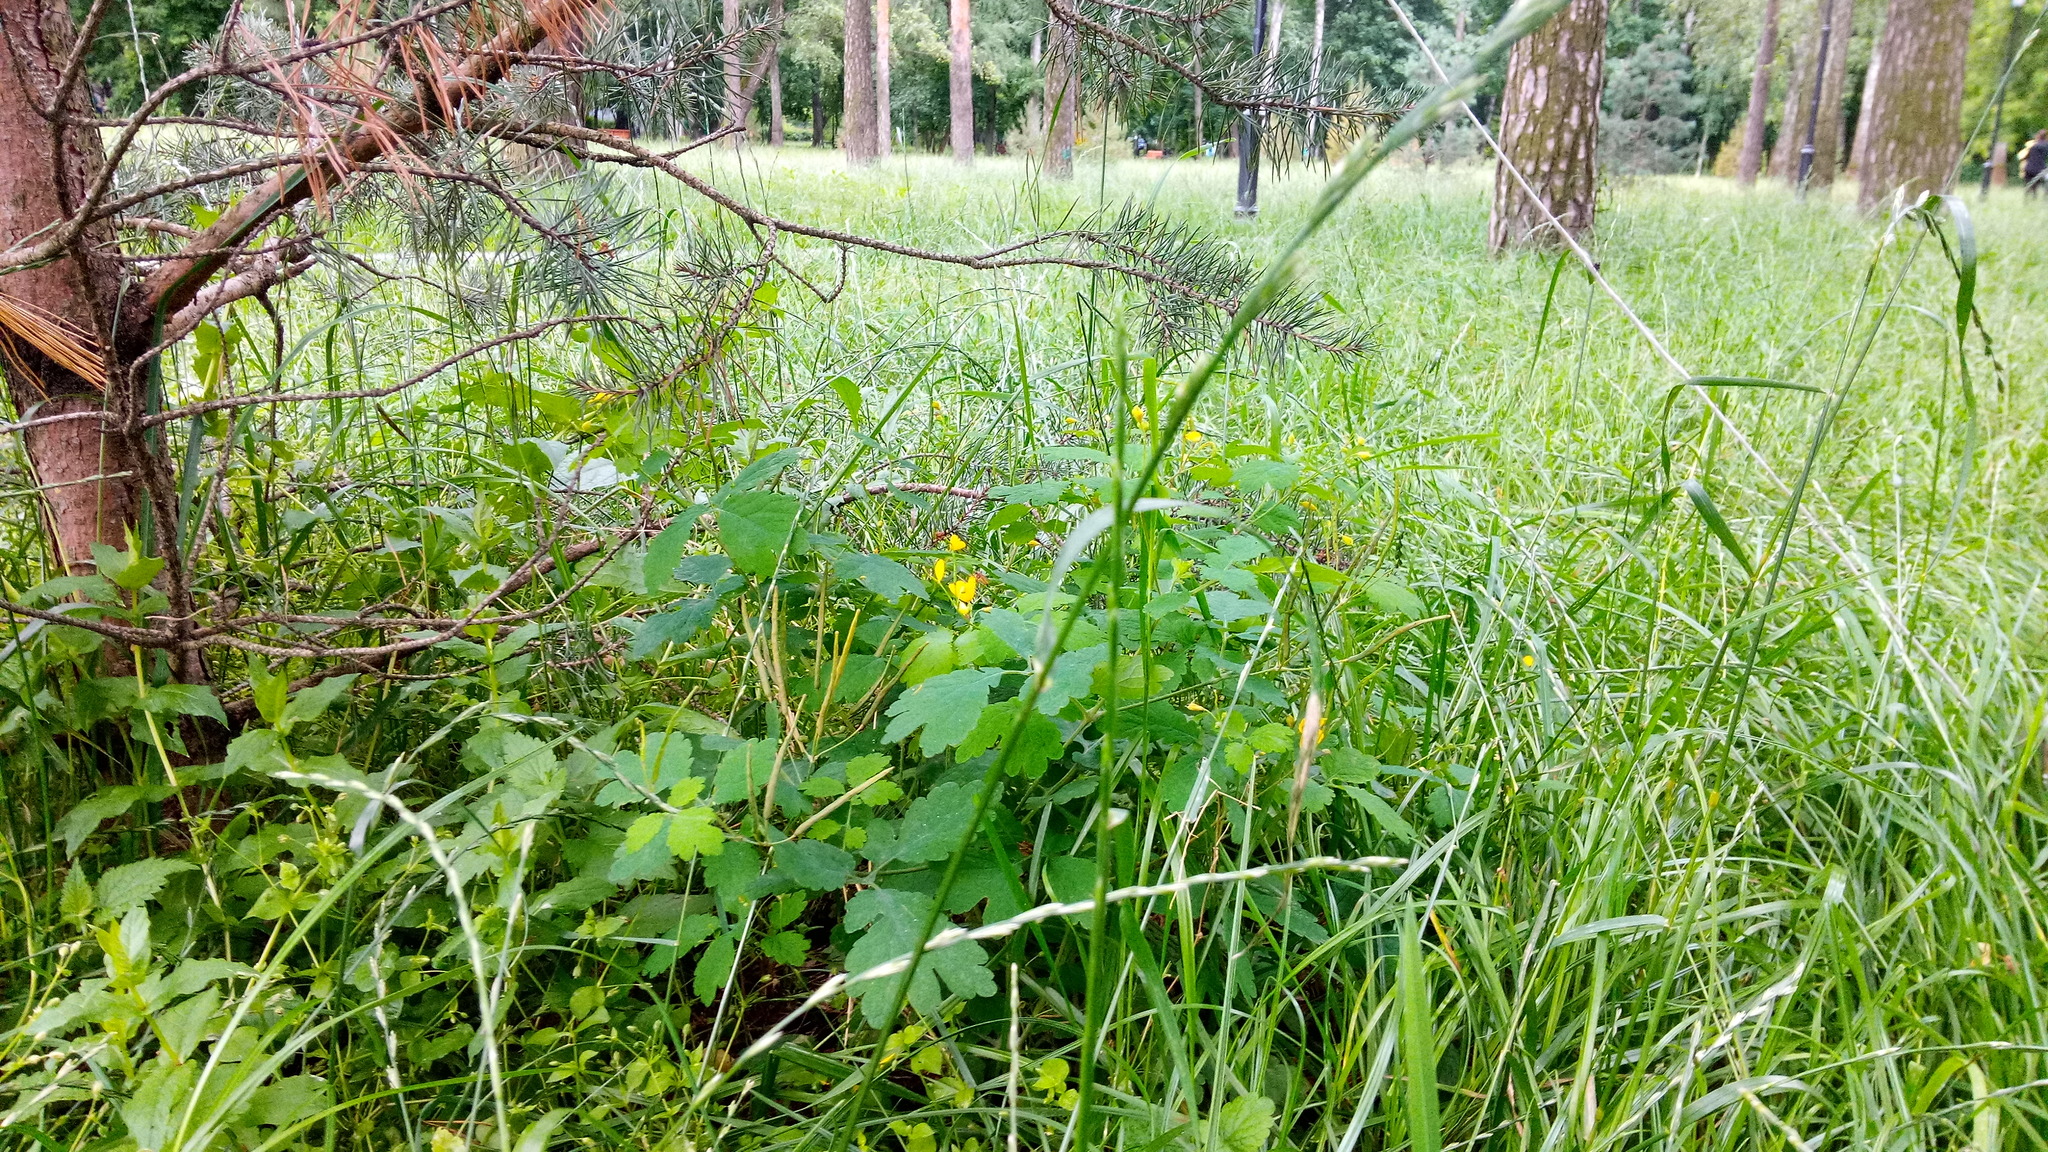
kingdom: Plantae
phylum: Tracheophyta
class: Magnoliopsida
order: Ranunculales
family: Papaveraceae
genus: Chelidonium
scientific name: Chelidonium majus
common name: Greater celandine
